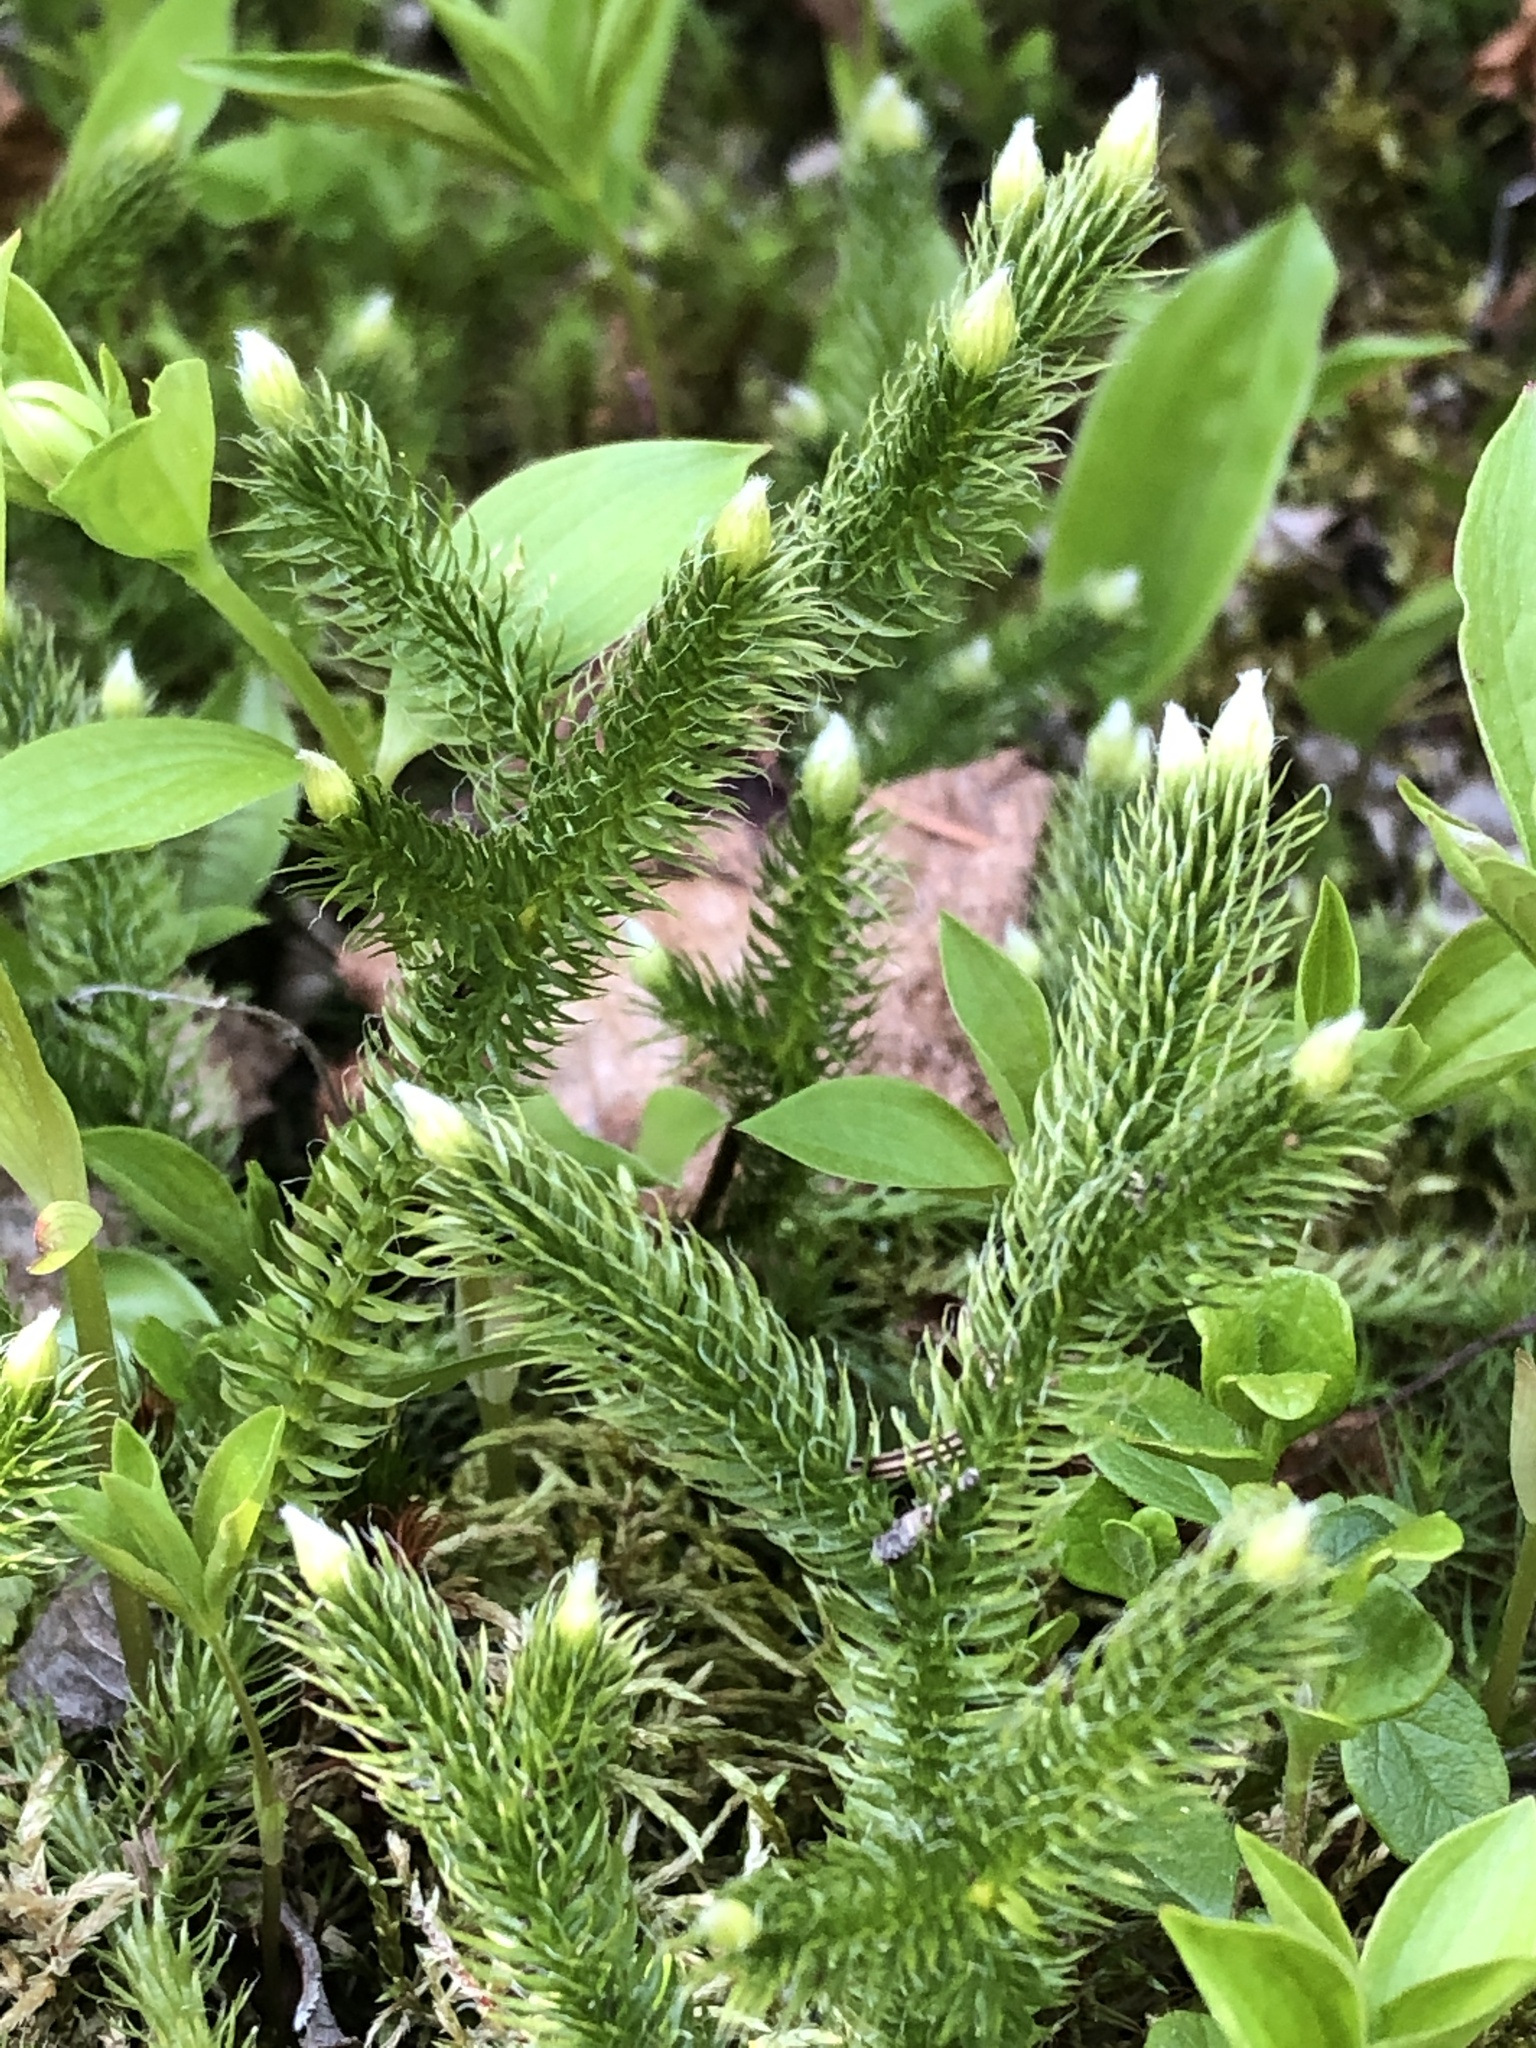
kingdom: Plantae
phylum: Tracheophyta
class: Lycopodiopsida
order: Lycopodiales
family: Lycopodiaceae
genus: Lycopodium
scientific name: Lycopodium clavatum
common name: Stag's-horn clubmoss
